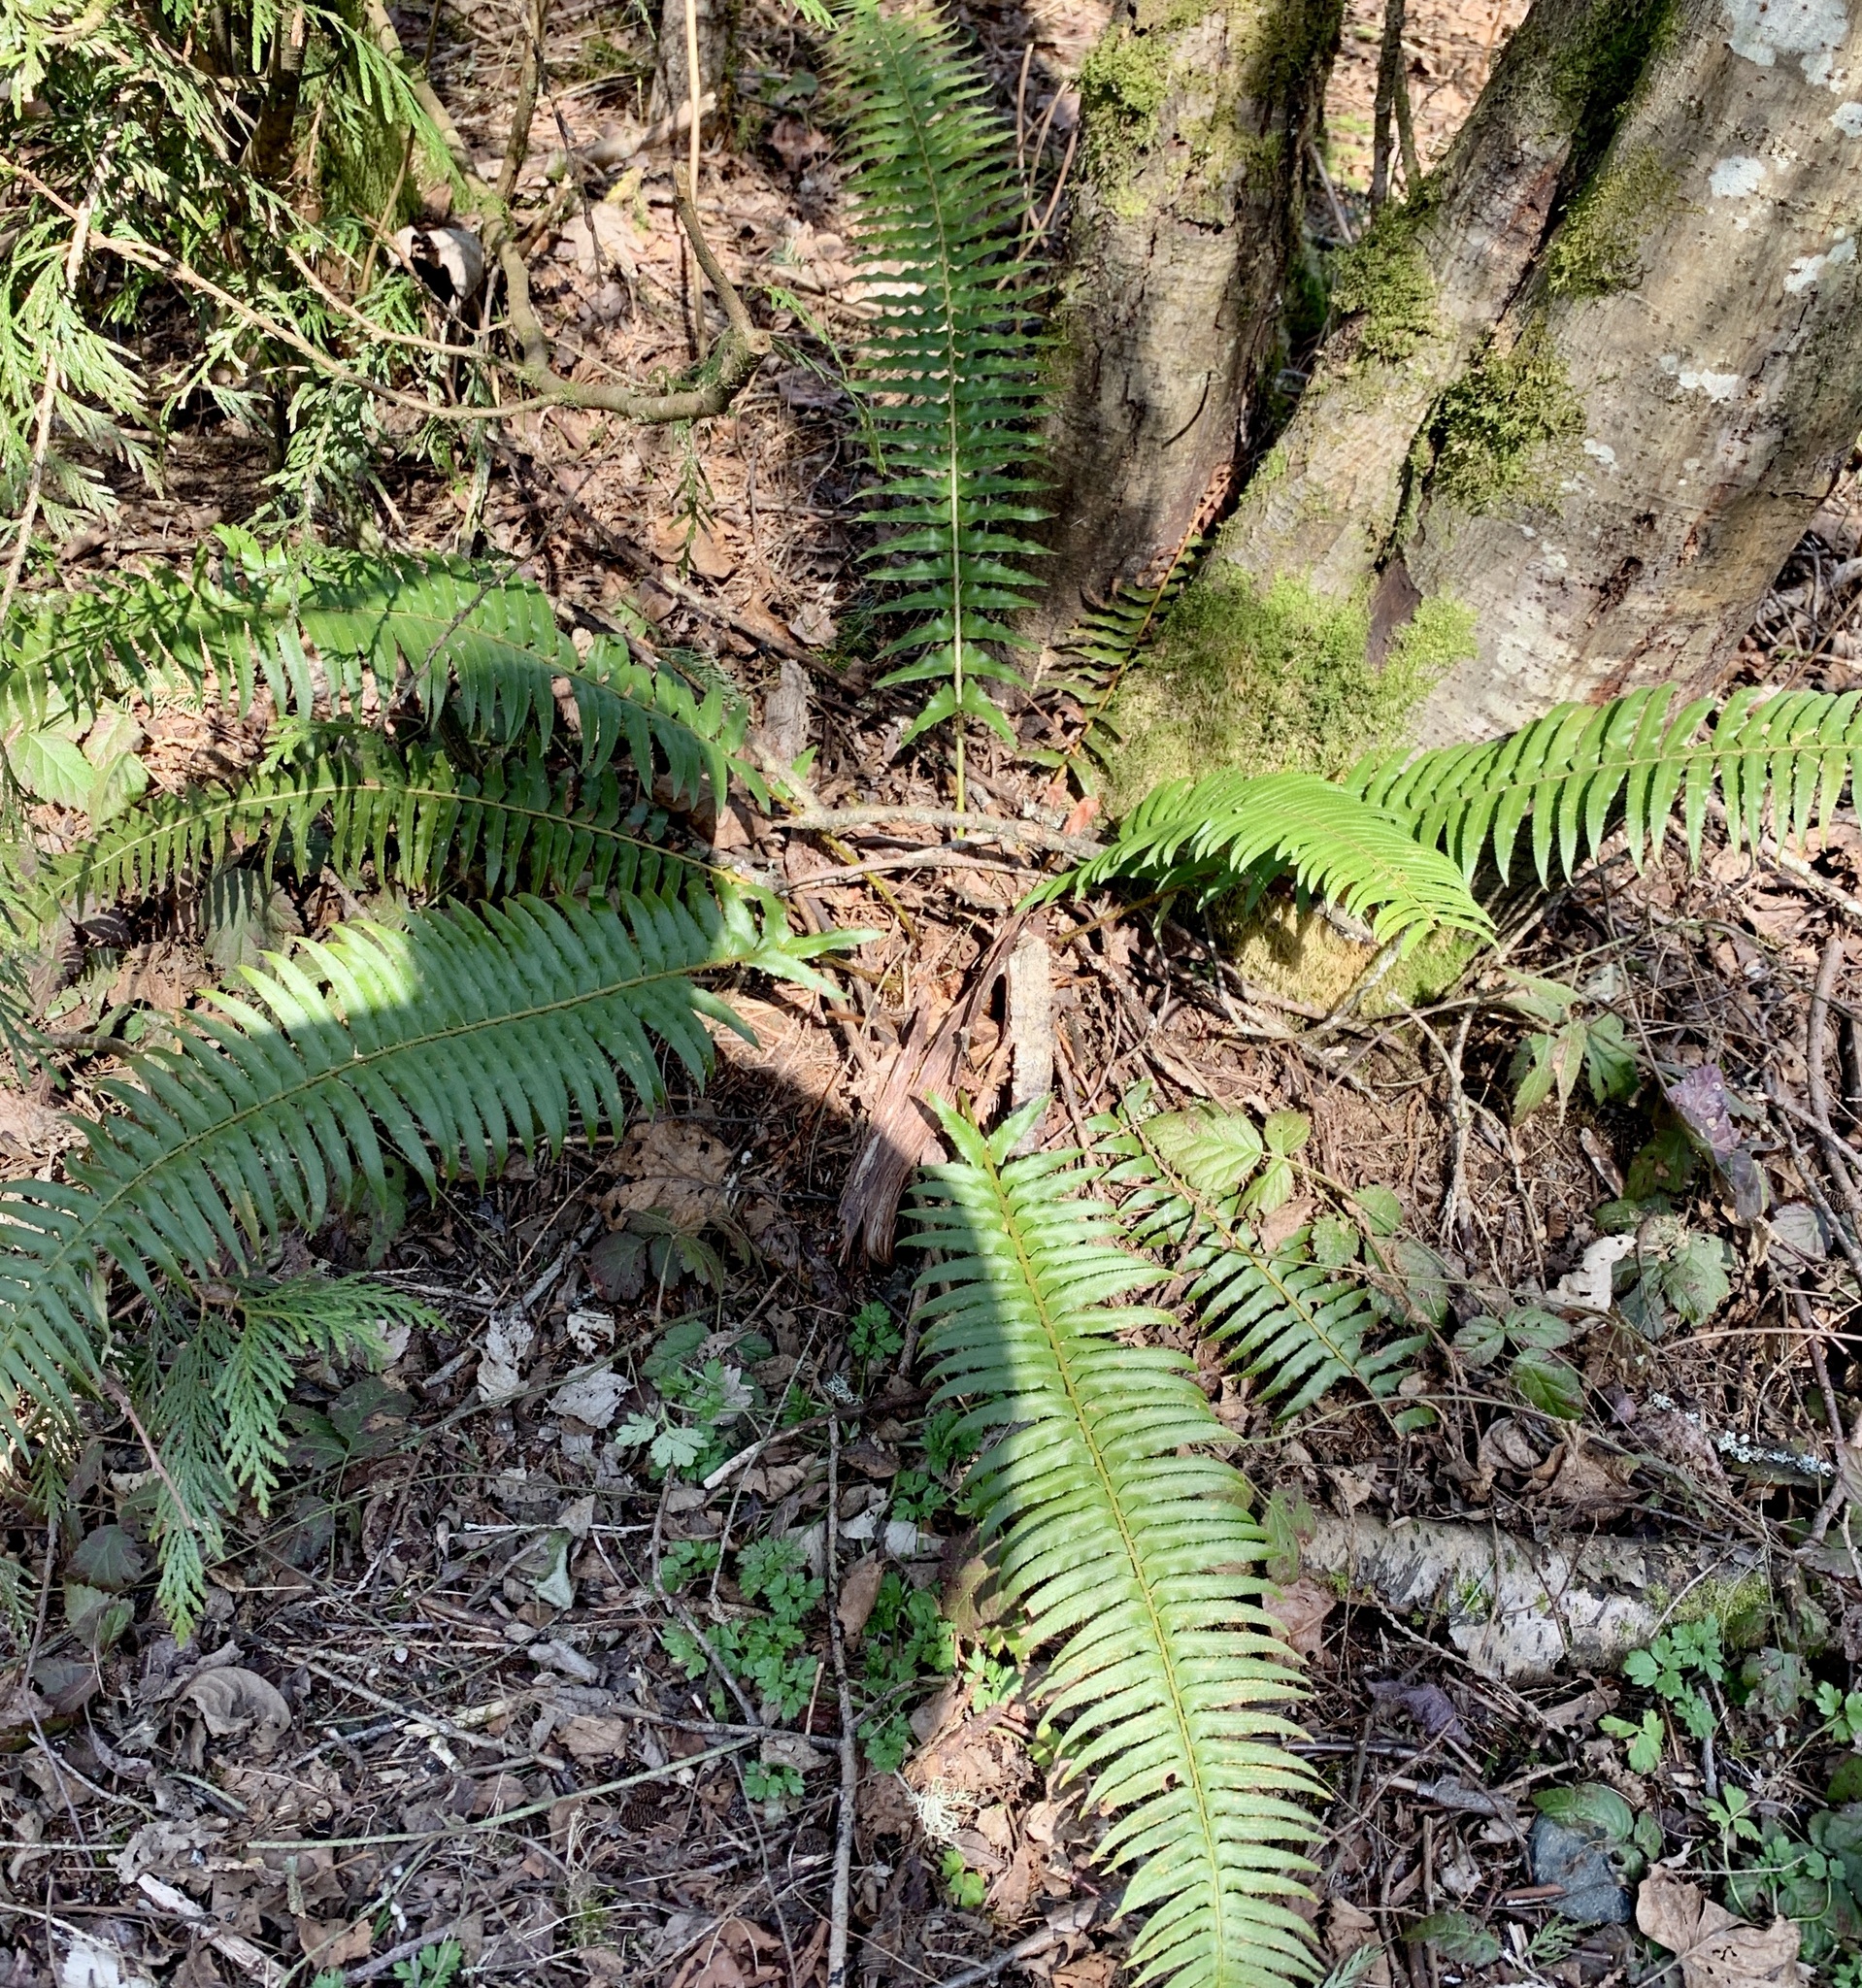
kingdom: Plantae
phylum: Tracheophyta
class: Polypodiopsida
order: Polypodiales
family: Dryopteridaceae
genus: Polystichum
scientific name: Polystichum munitum
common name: Western sword-fern
